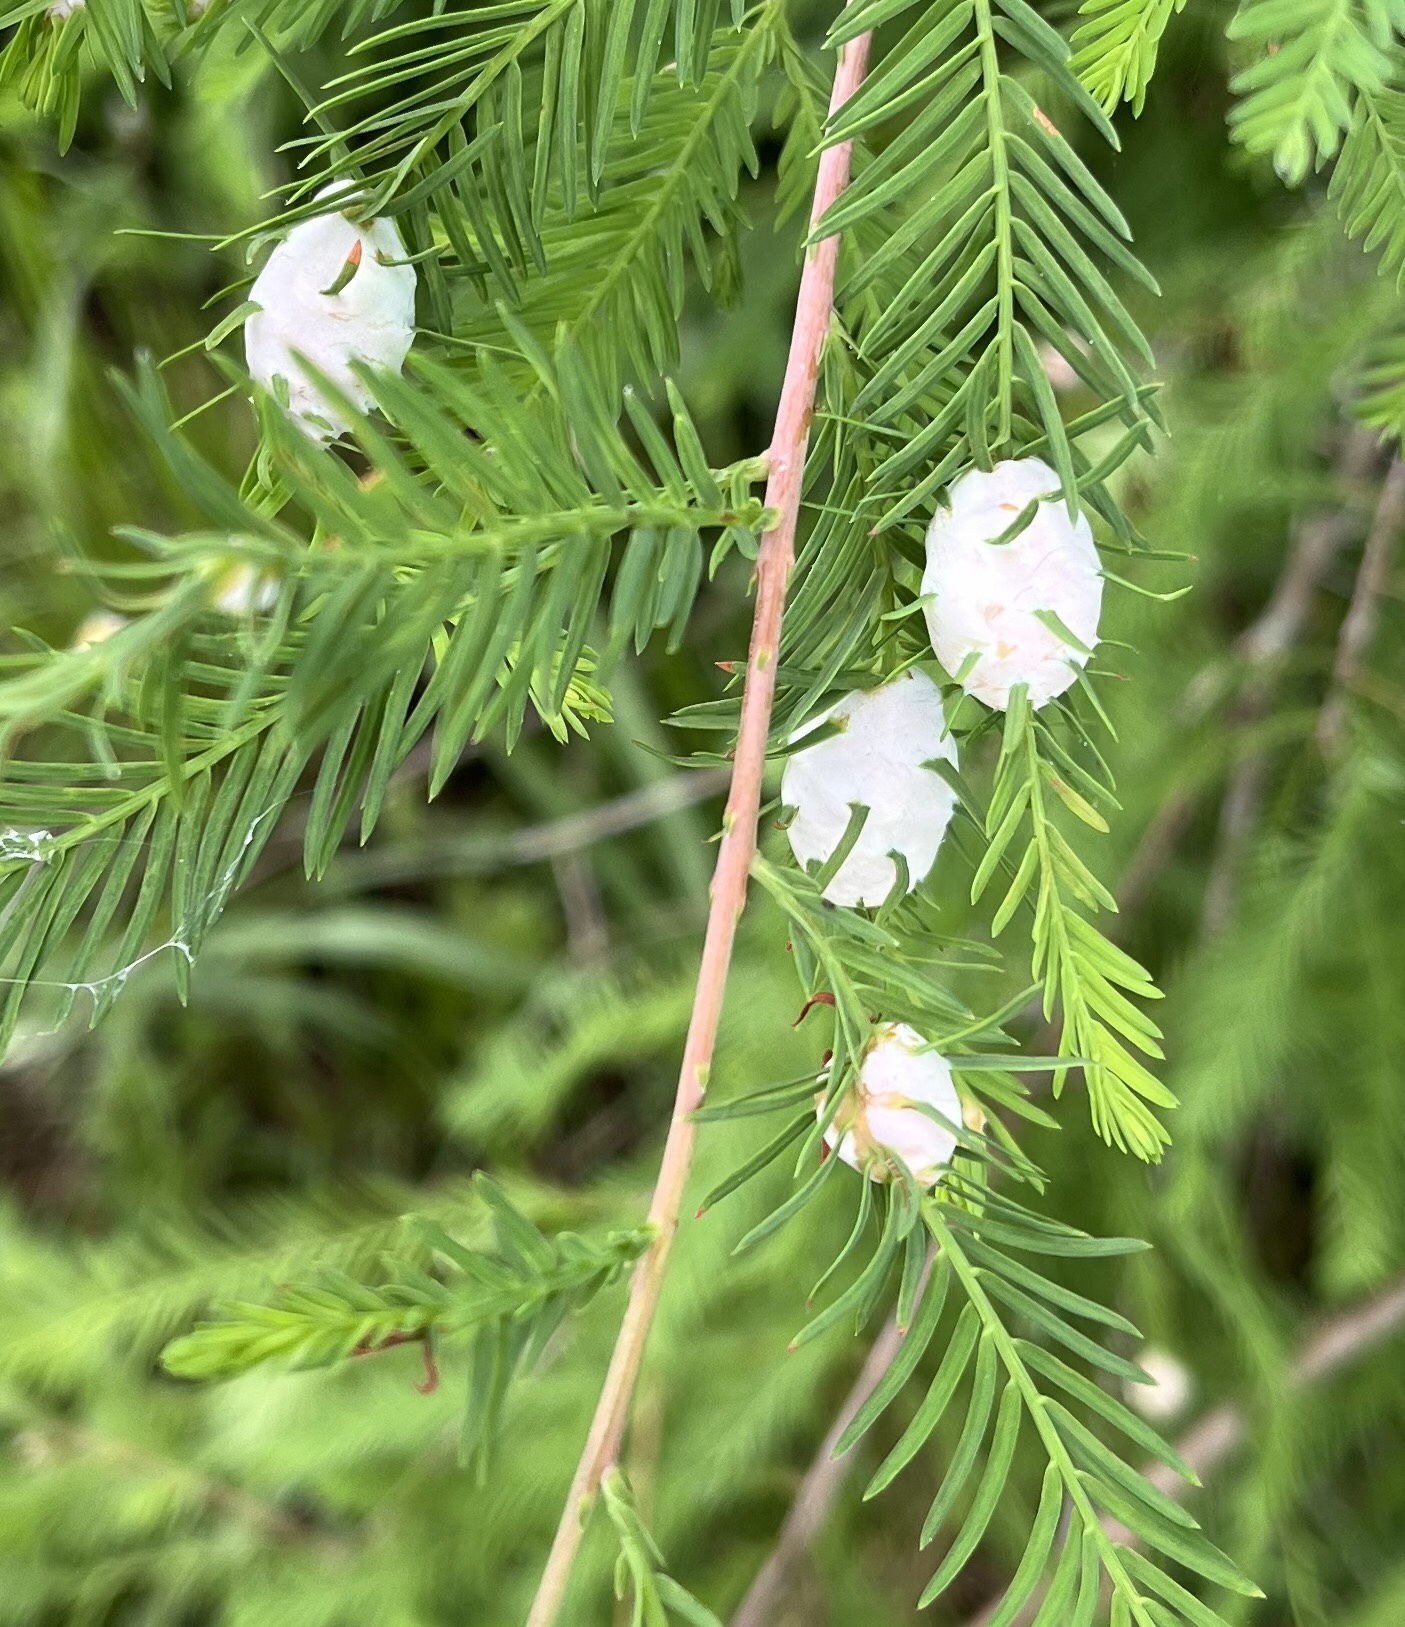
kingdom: Animalia
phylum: Arthropoda
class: Insecta
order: Diptera
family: Cecidomyiidae
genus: Taxodiomyia
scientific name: Taxodiomyia cupressiananassa
